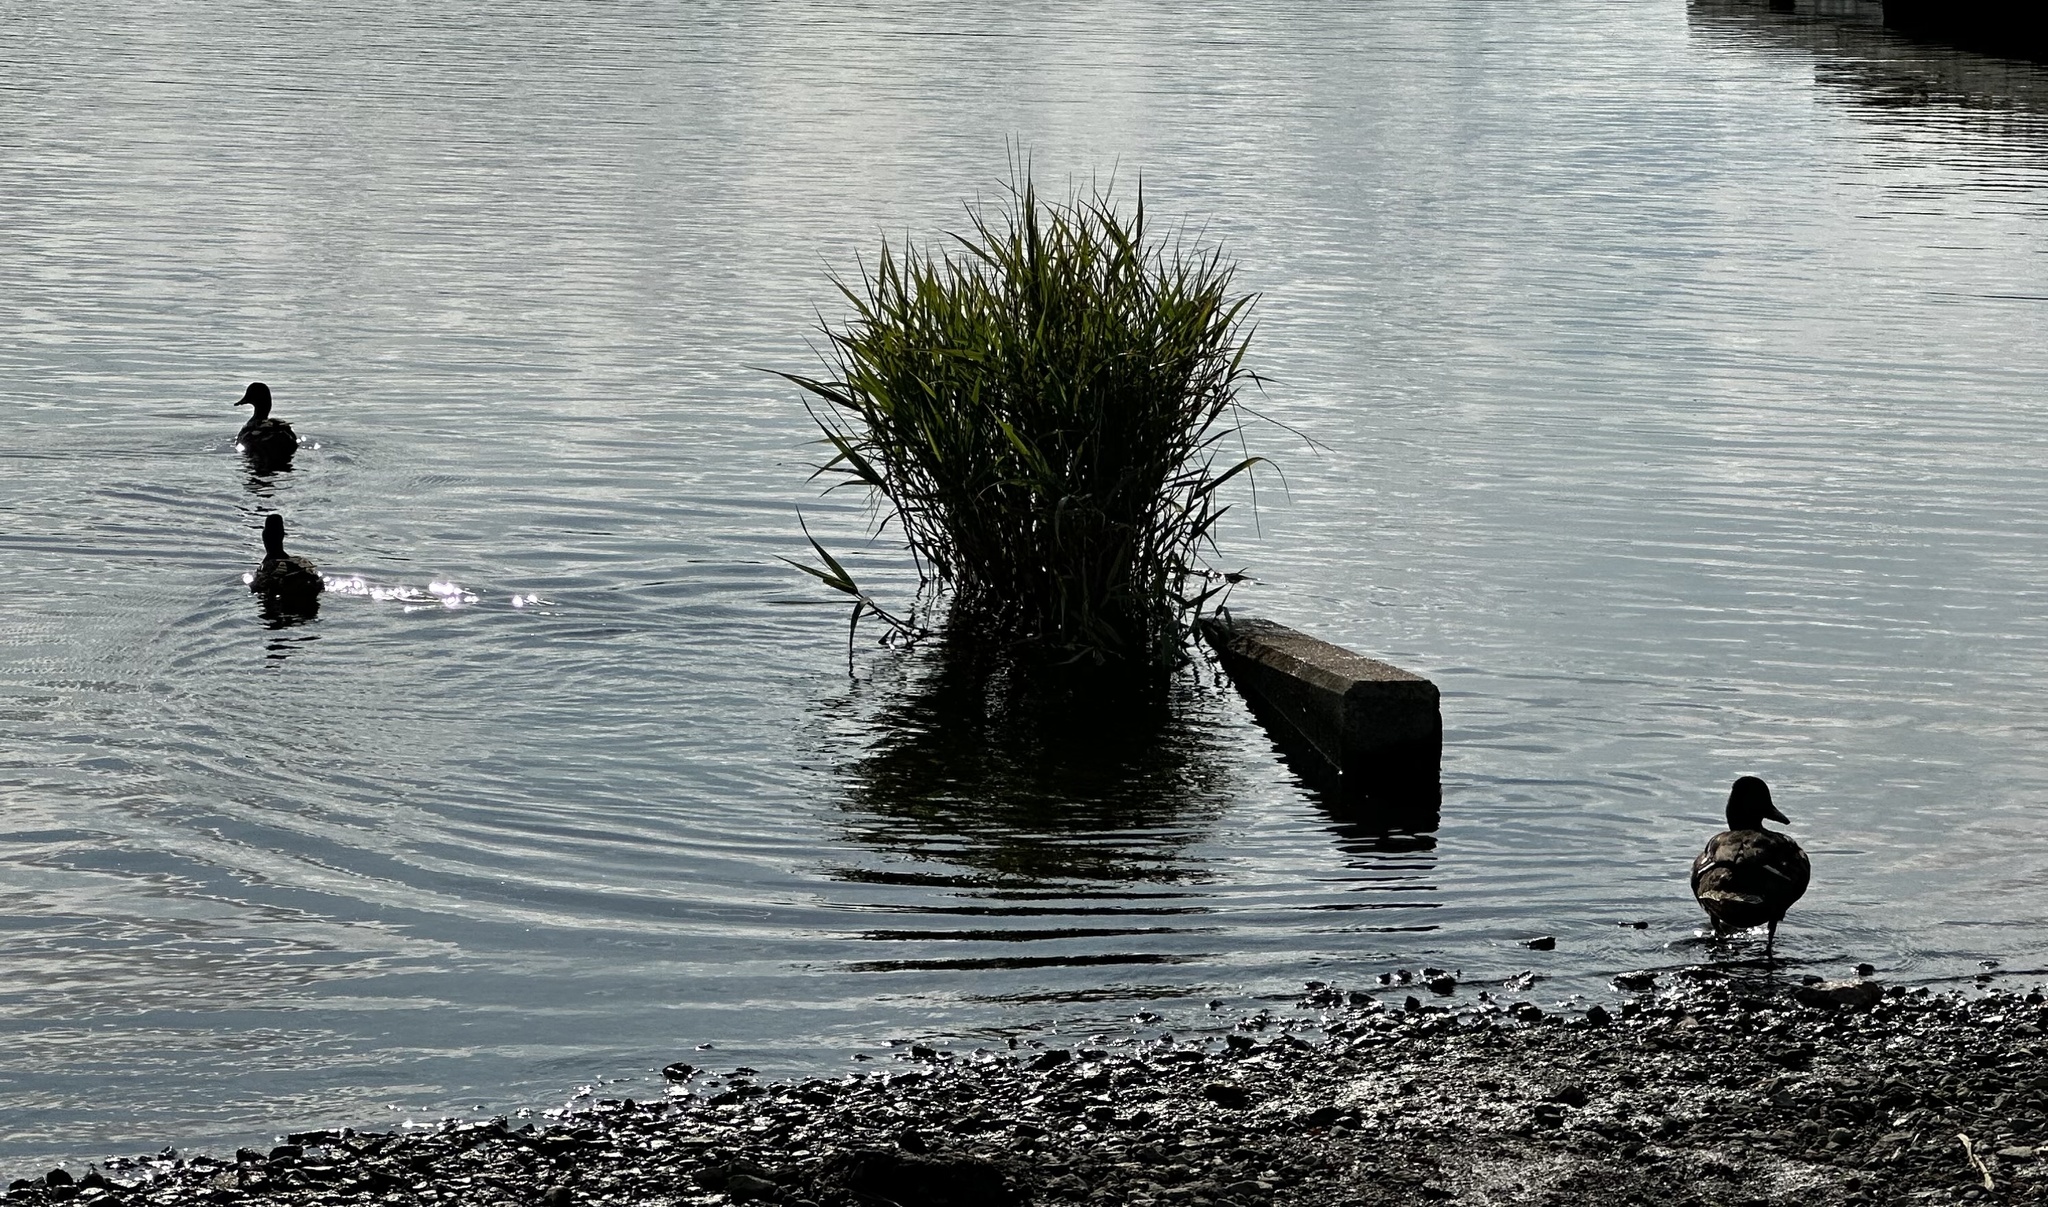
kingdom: Animalia
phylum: Chordata
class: Aves
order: Anseriformes
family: Anatidae
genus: Anas
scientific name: Anas platyrhynchos
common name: Mallard
